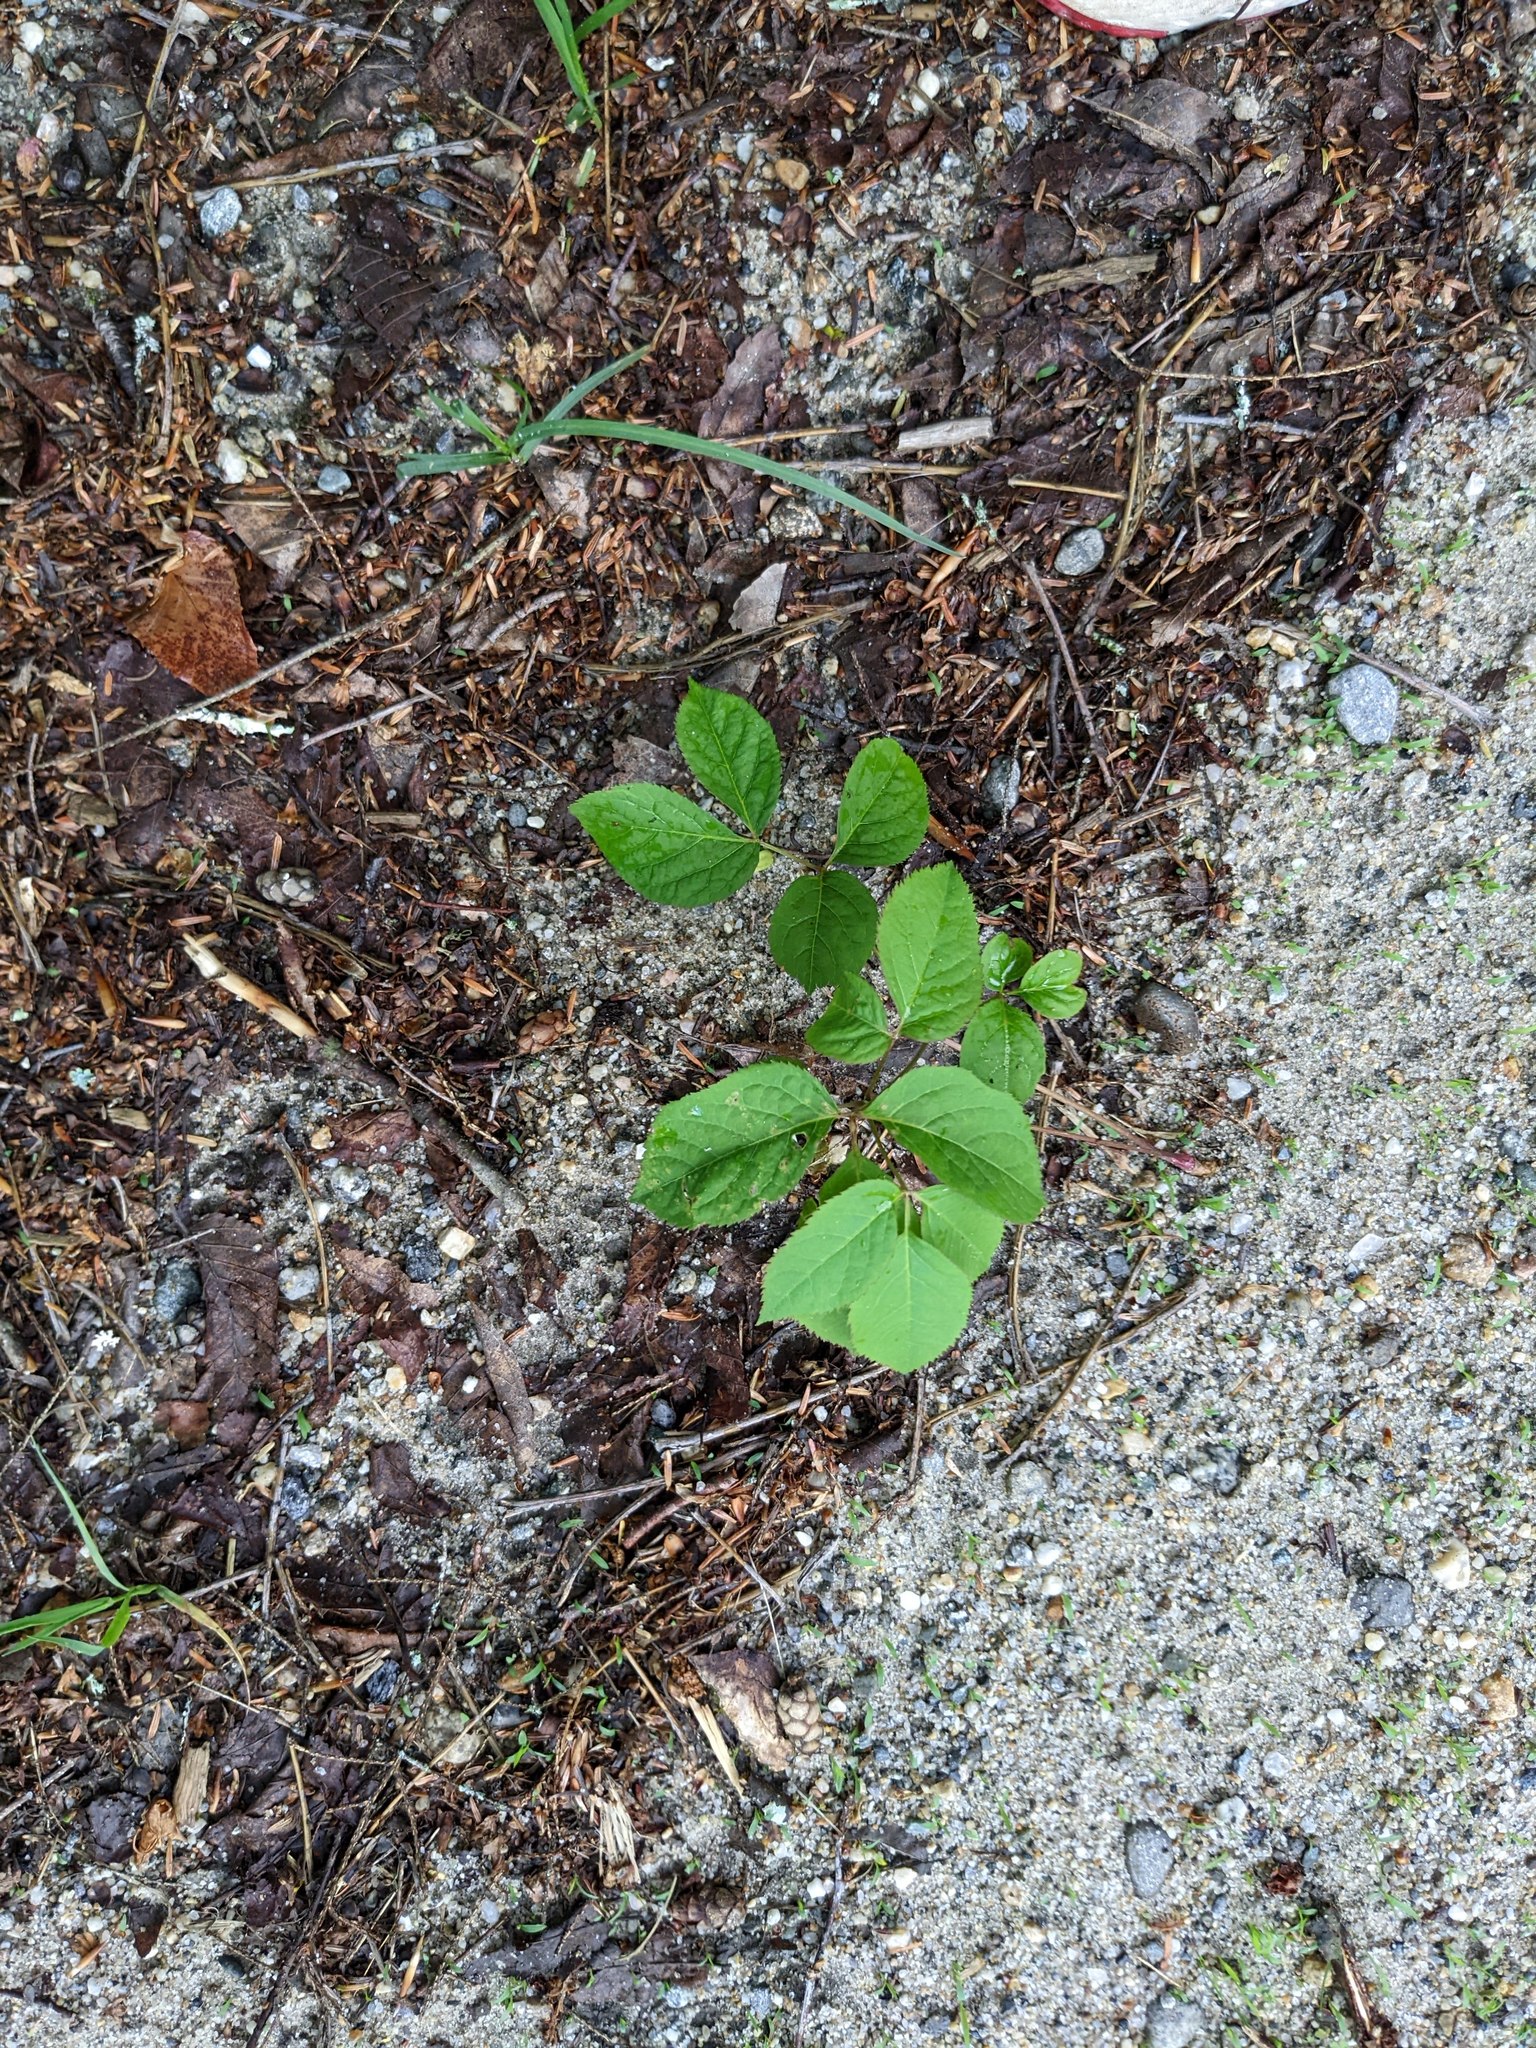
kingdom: Plantae
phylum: Tracheophyta
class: Magnoliopsida
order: Apiales
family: Araliaceae
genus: Aralia
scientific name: Aralia nudicaulis
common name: Wild sarsaparilla
